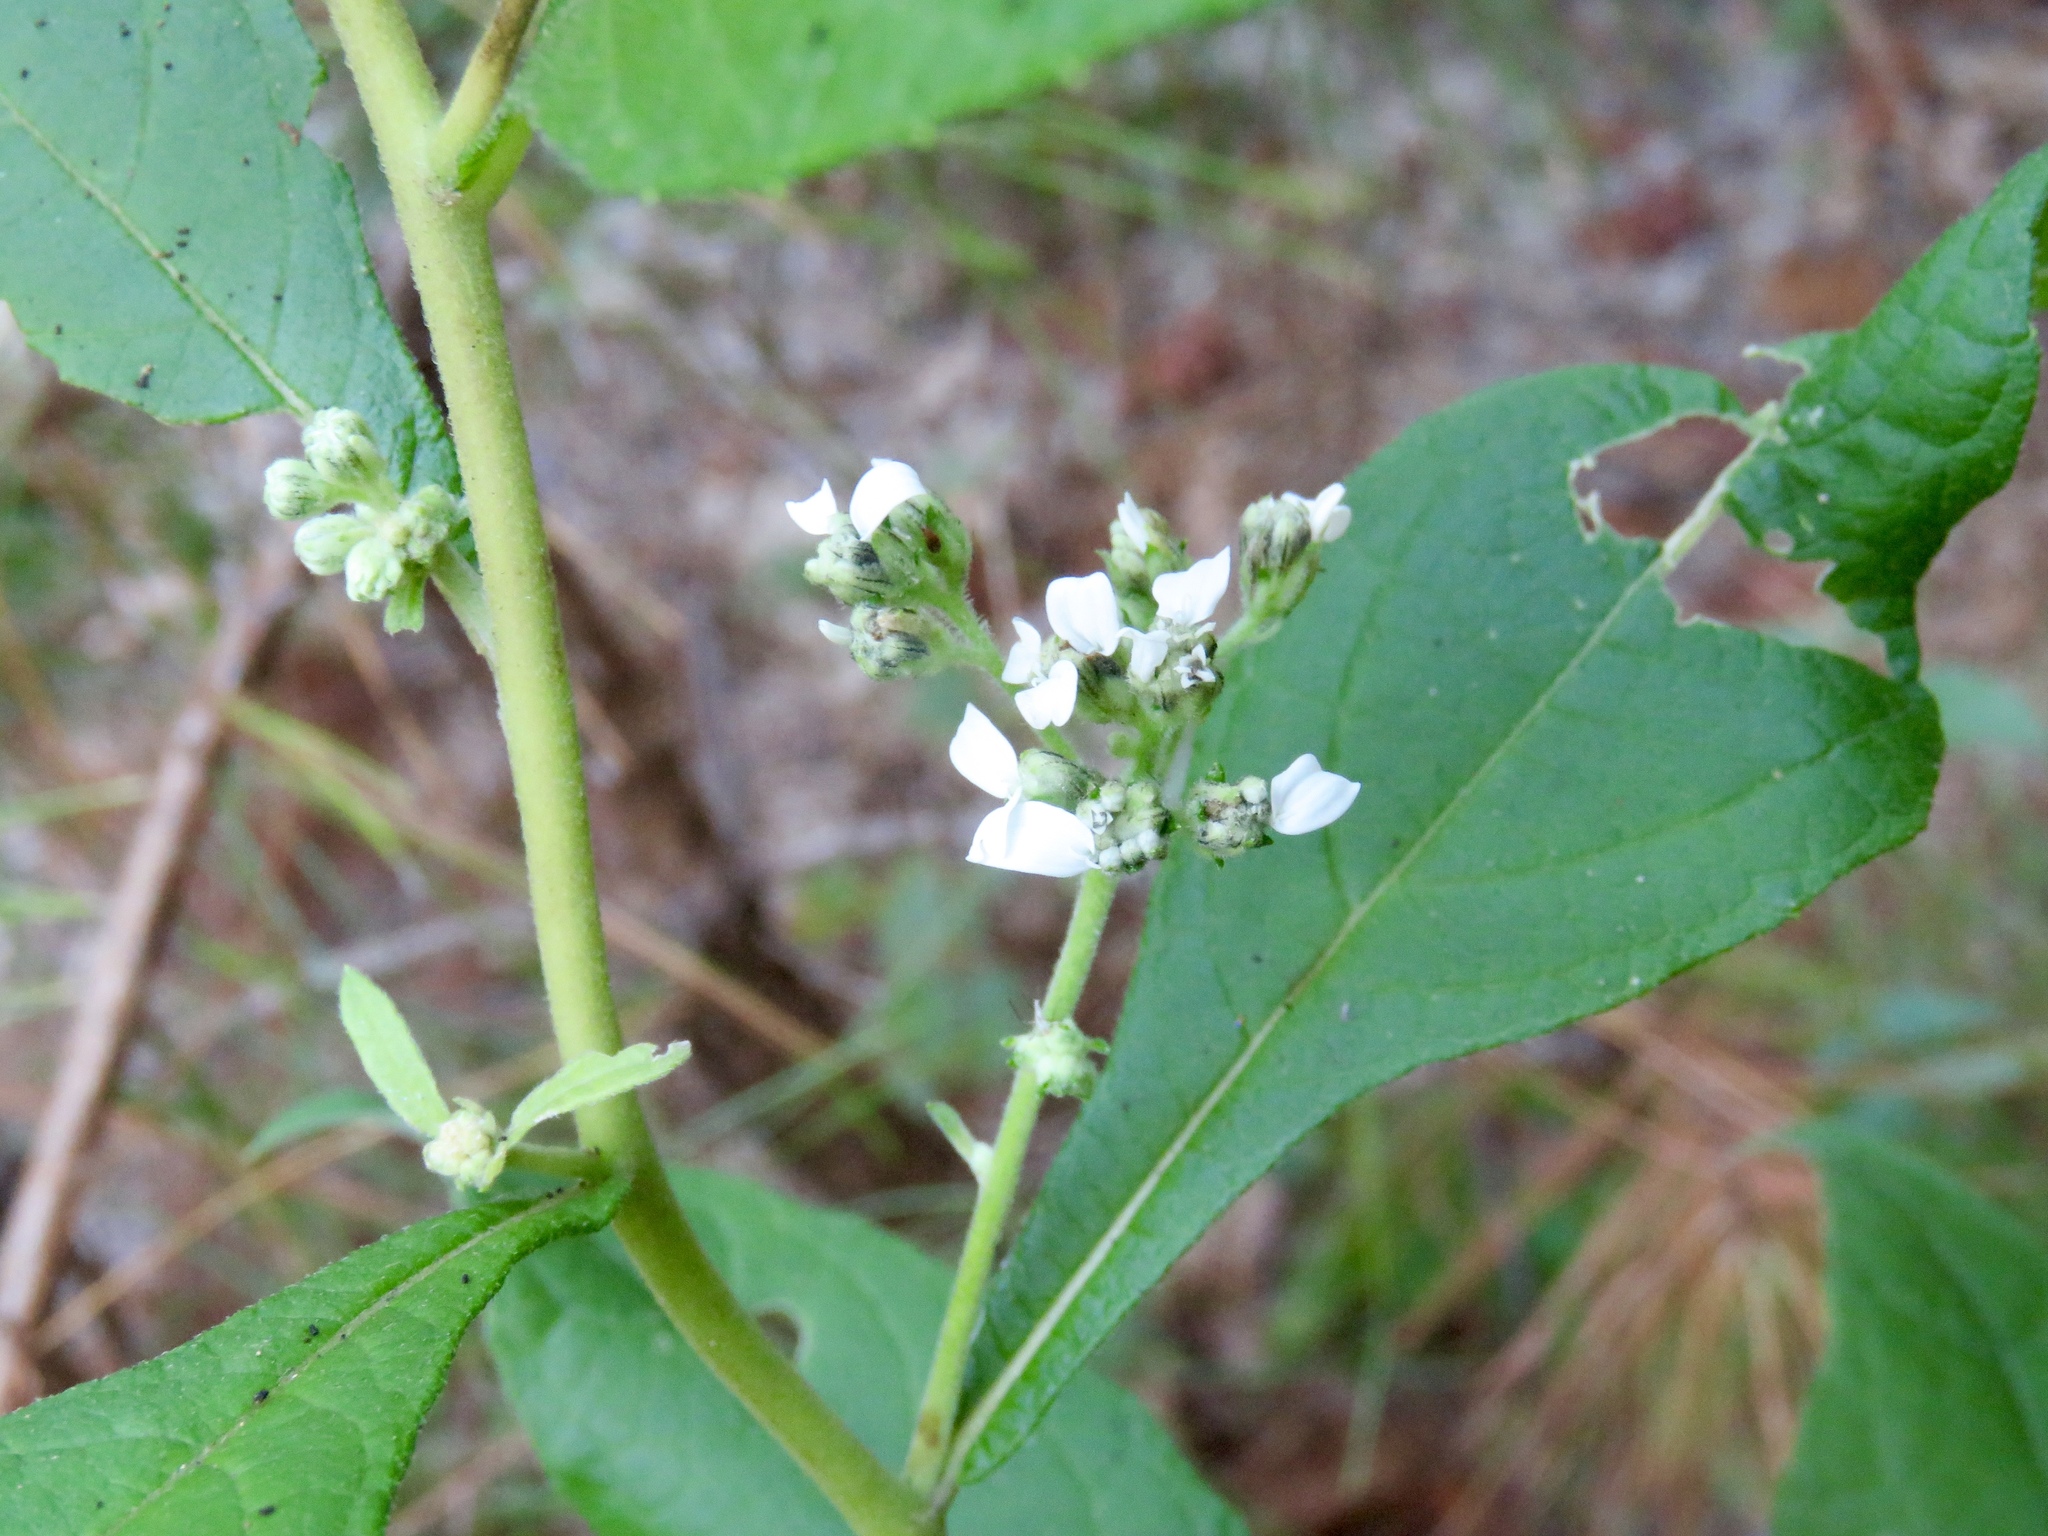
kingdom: Plantae
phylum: Tracheophyta
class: Magnoliopsida
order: Asterales
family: Asteraceae
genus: Verbesina
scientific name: Verbesina virginica
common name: Frostweed
